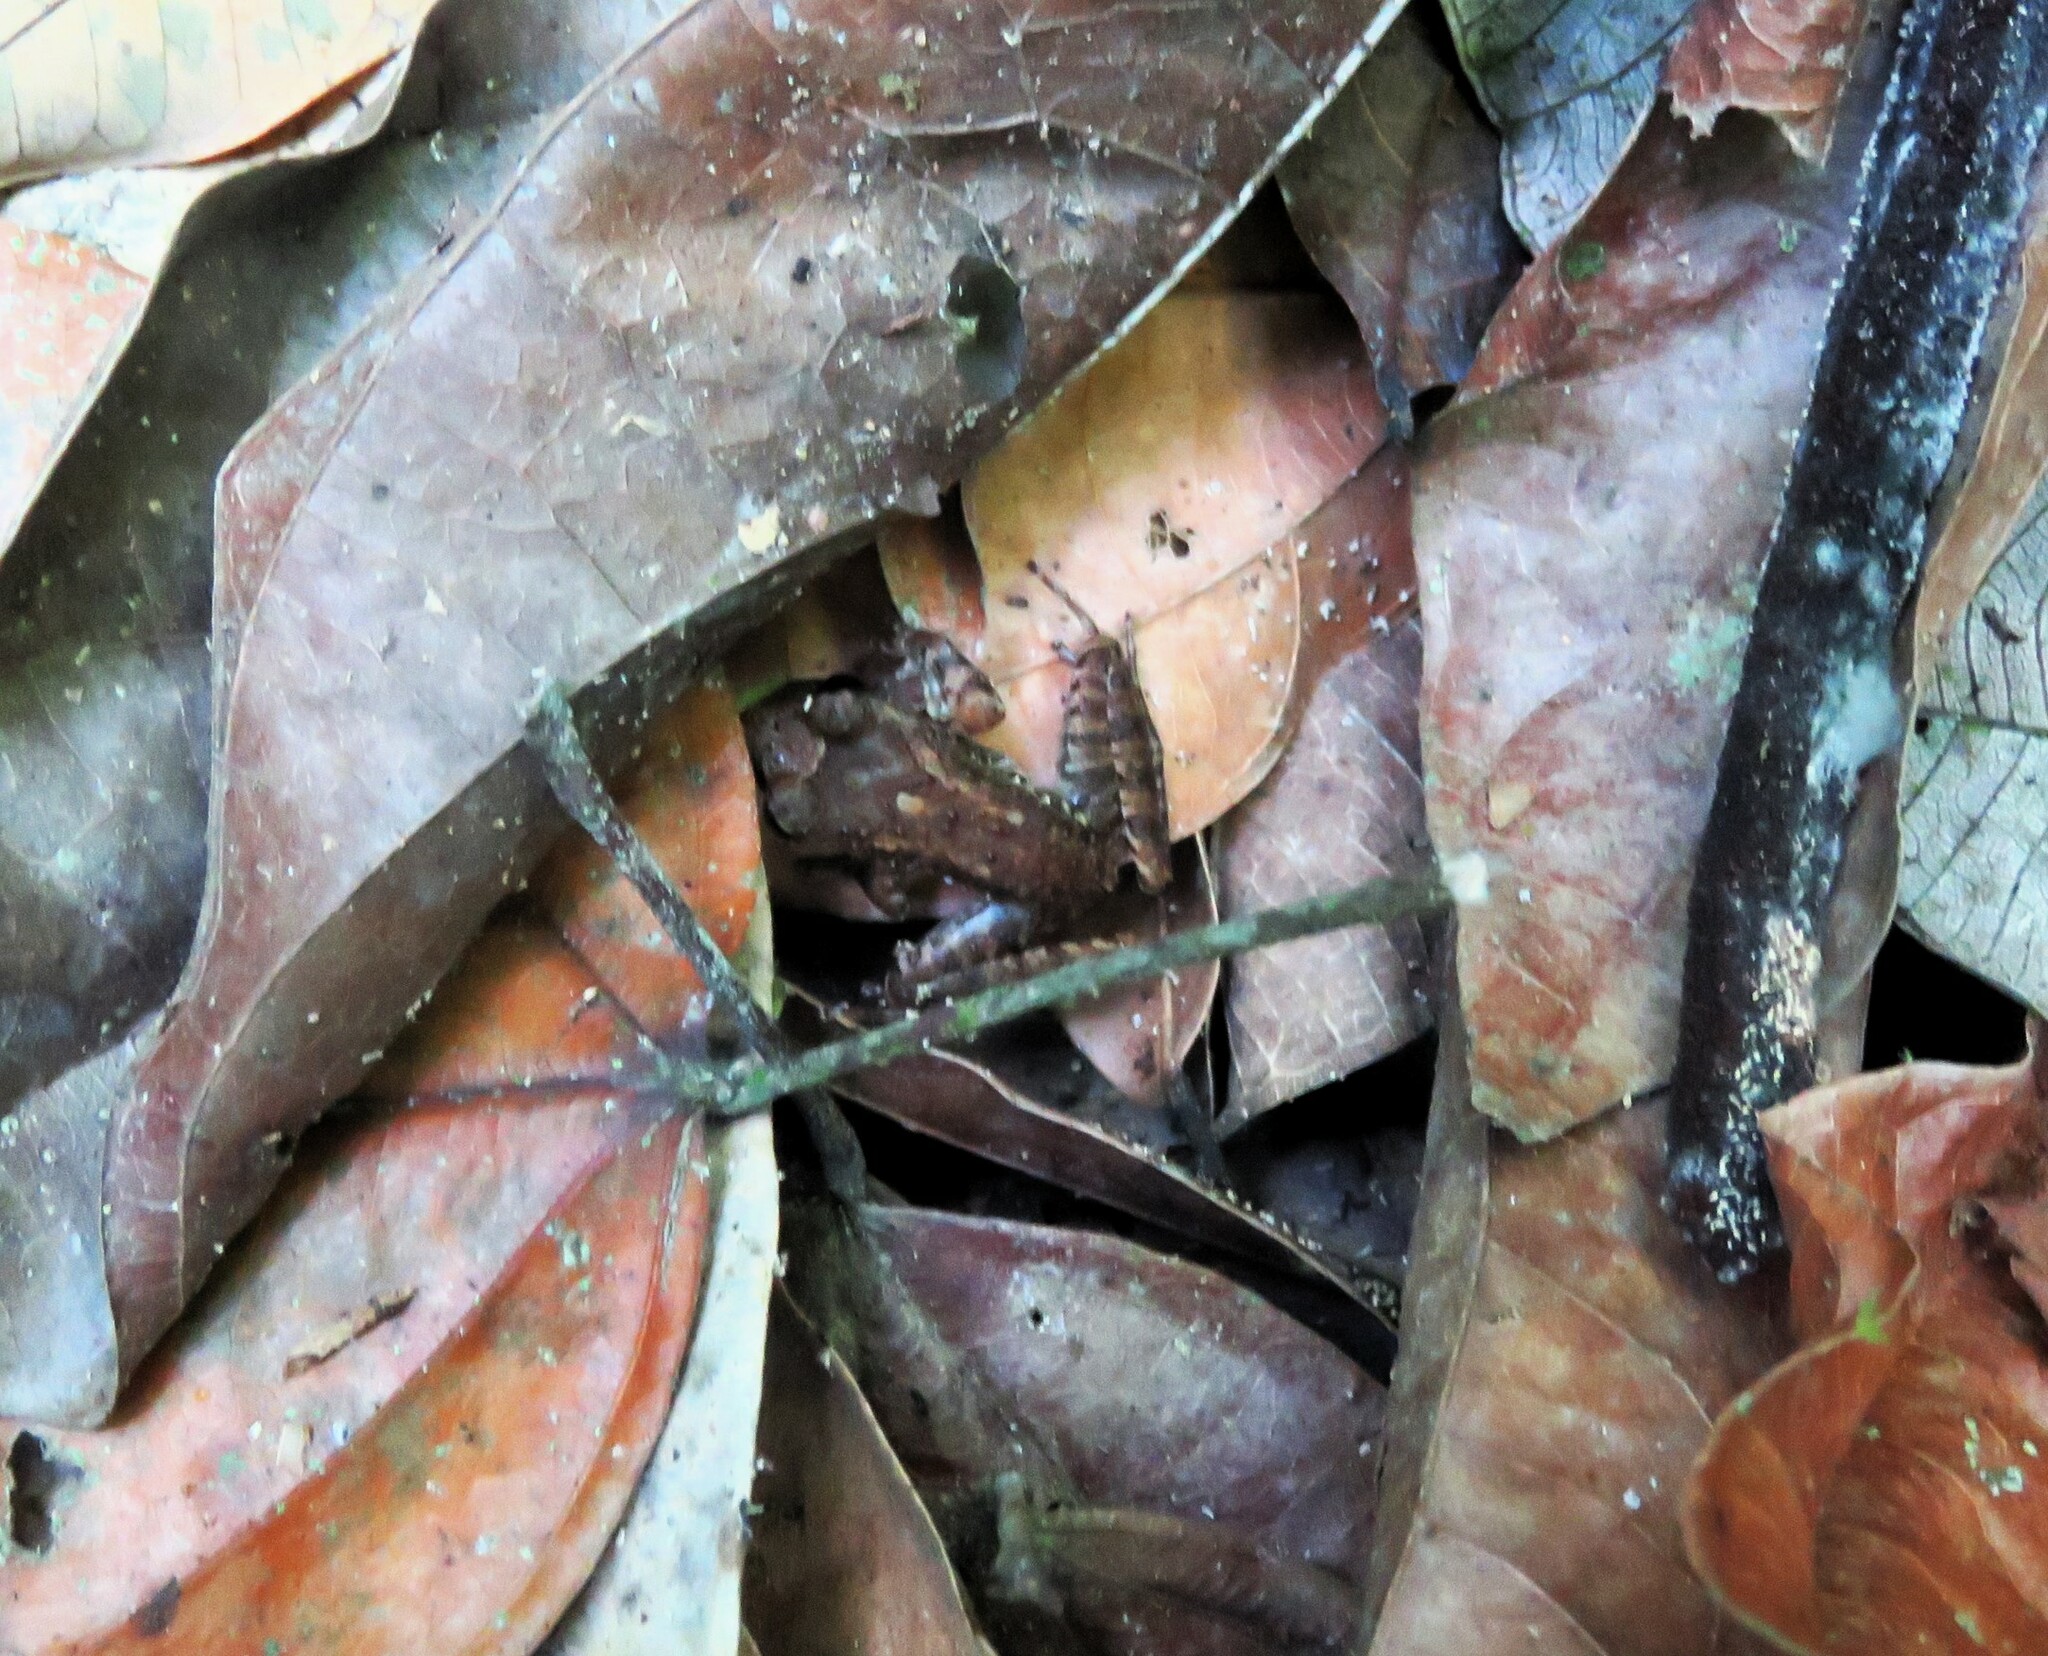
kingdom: Animalia
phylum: Chordata
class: Amphibia
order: Anura
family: Craugastoridae
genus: Craugastor
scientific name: Craugastor fitzingeri
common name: Fitzinger's robber frog
